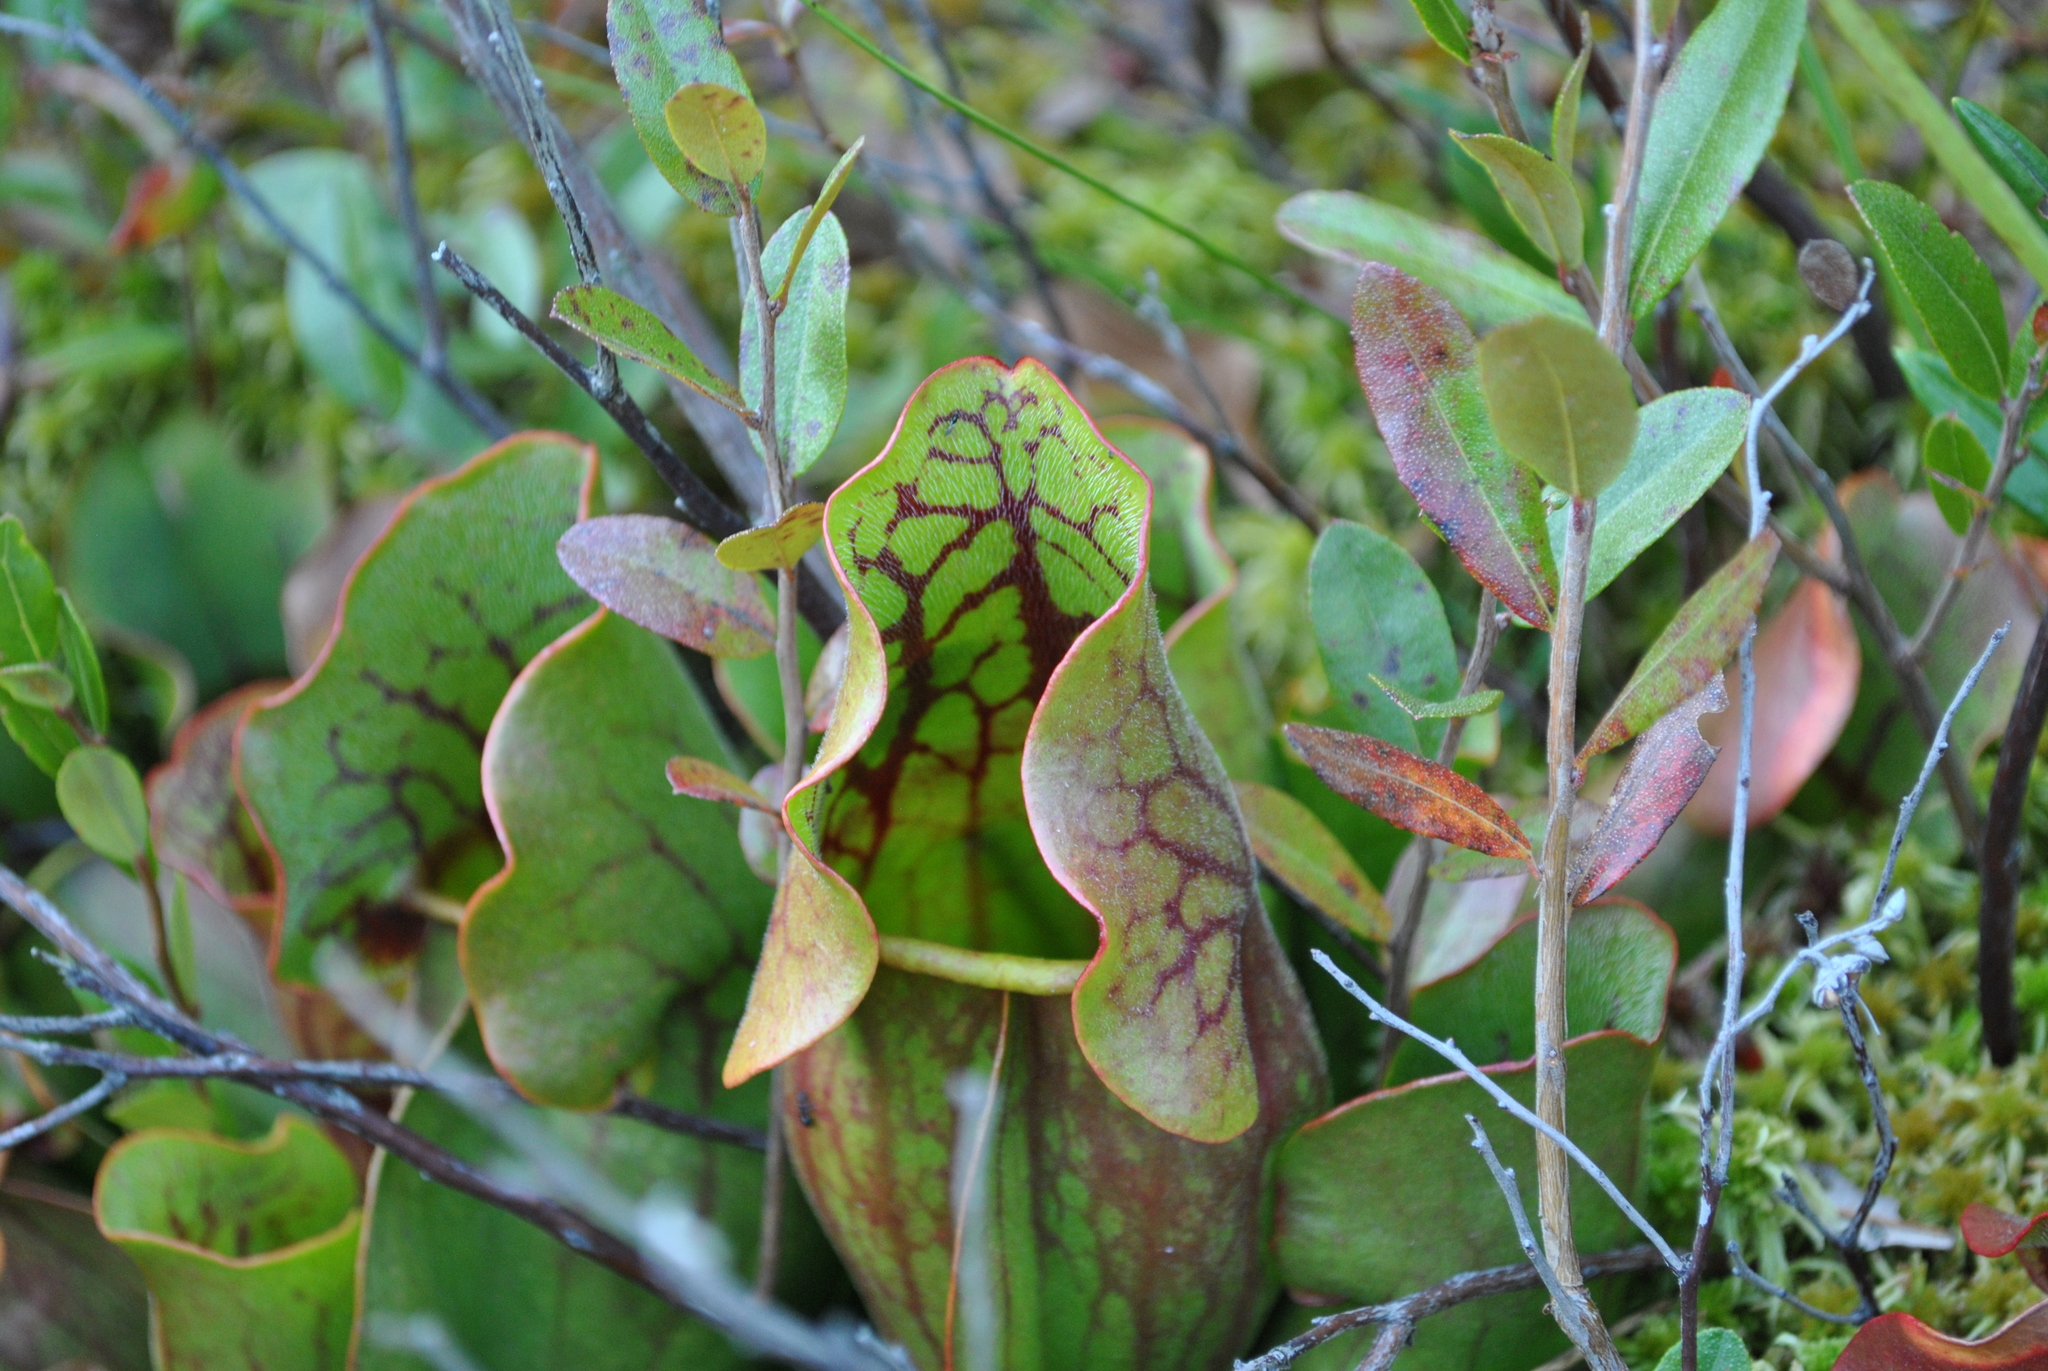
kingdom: Plantae
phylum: Tracheophyta
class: Magnoliopsida
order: Ericales
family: Sarraceniaceae
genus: Sarracenia
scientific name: Sarracenia purpurea
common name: Pitcherplant
